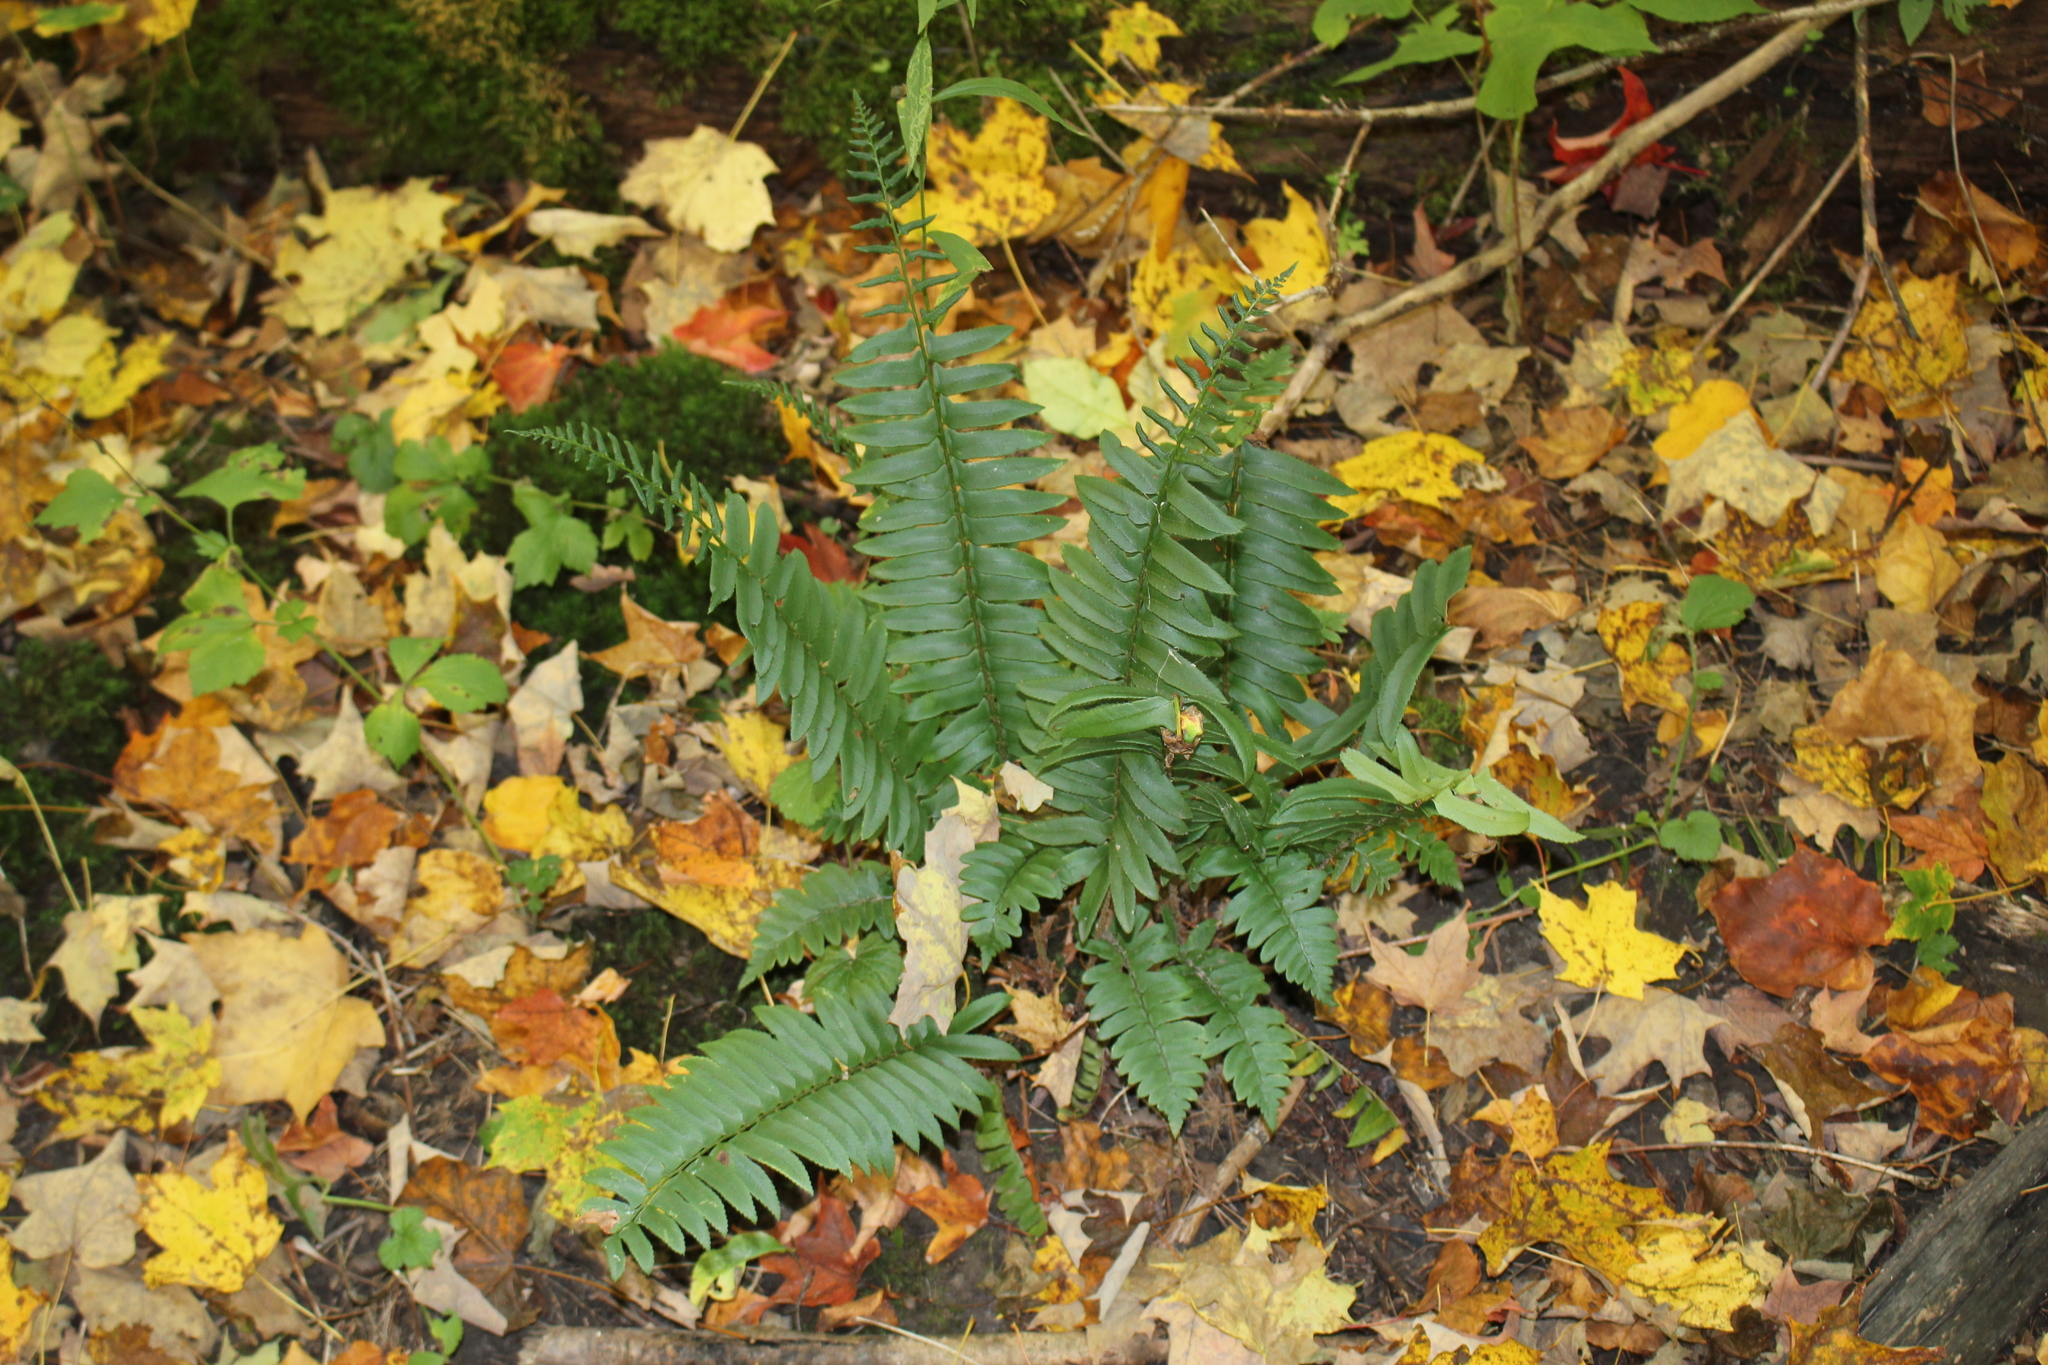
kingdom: Plantae
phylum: Tracheophyta
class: Polypodiopsida
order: Polypodiales
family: Dryopteridaceae
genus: Polystichum
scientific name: Polystichum acrostichoides
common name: Christmas fern
